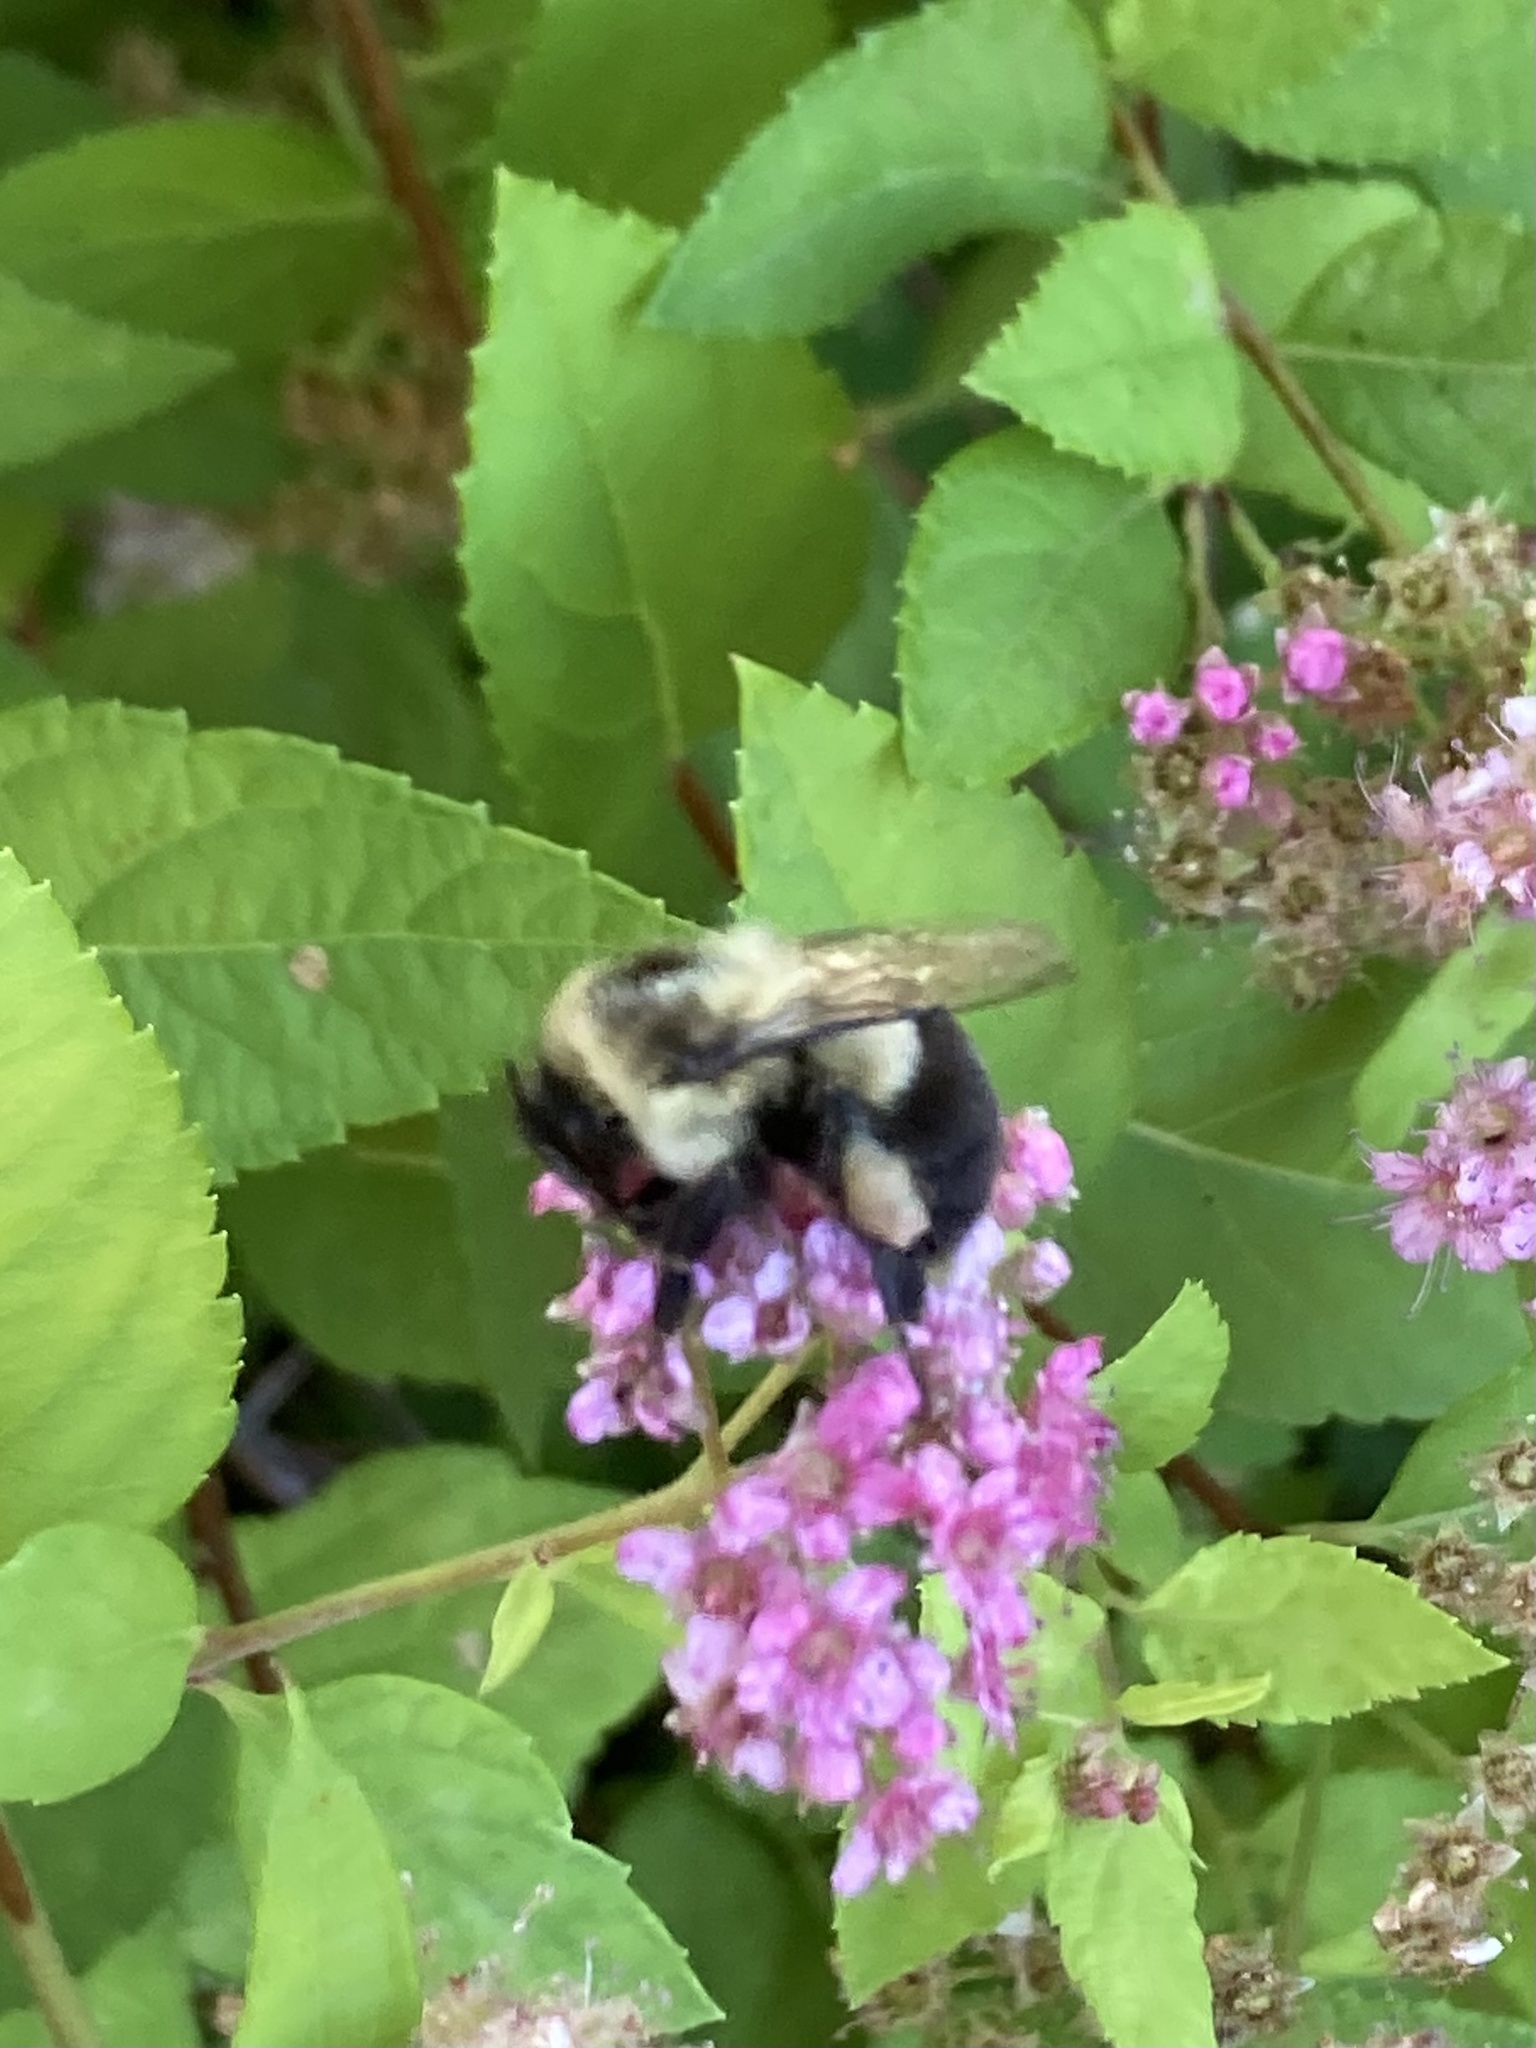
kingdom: Animalia
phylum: Arthropoda
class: Insecta
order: Hymenoptera
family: Apidae
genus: Bombus
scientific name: Bombus impatiens
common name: Common eastern bumble bee
